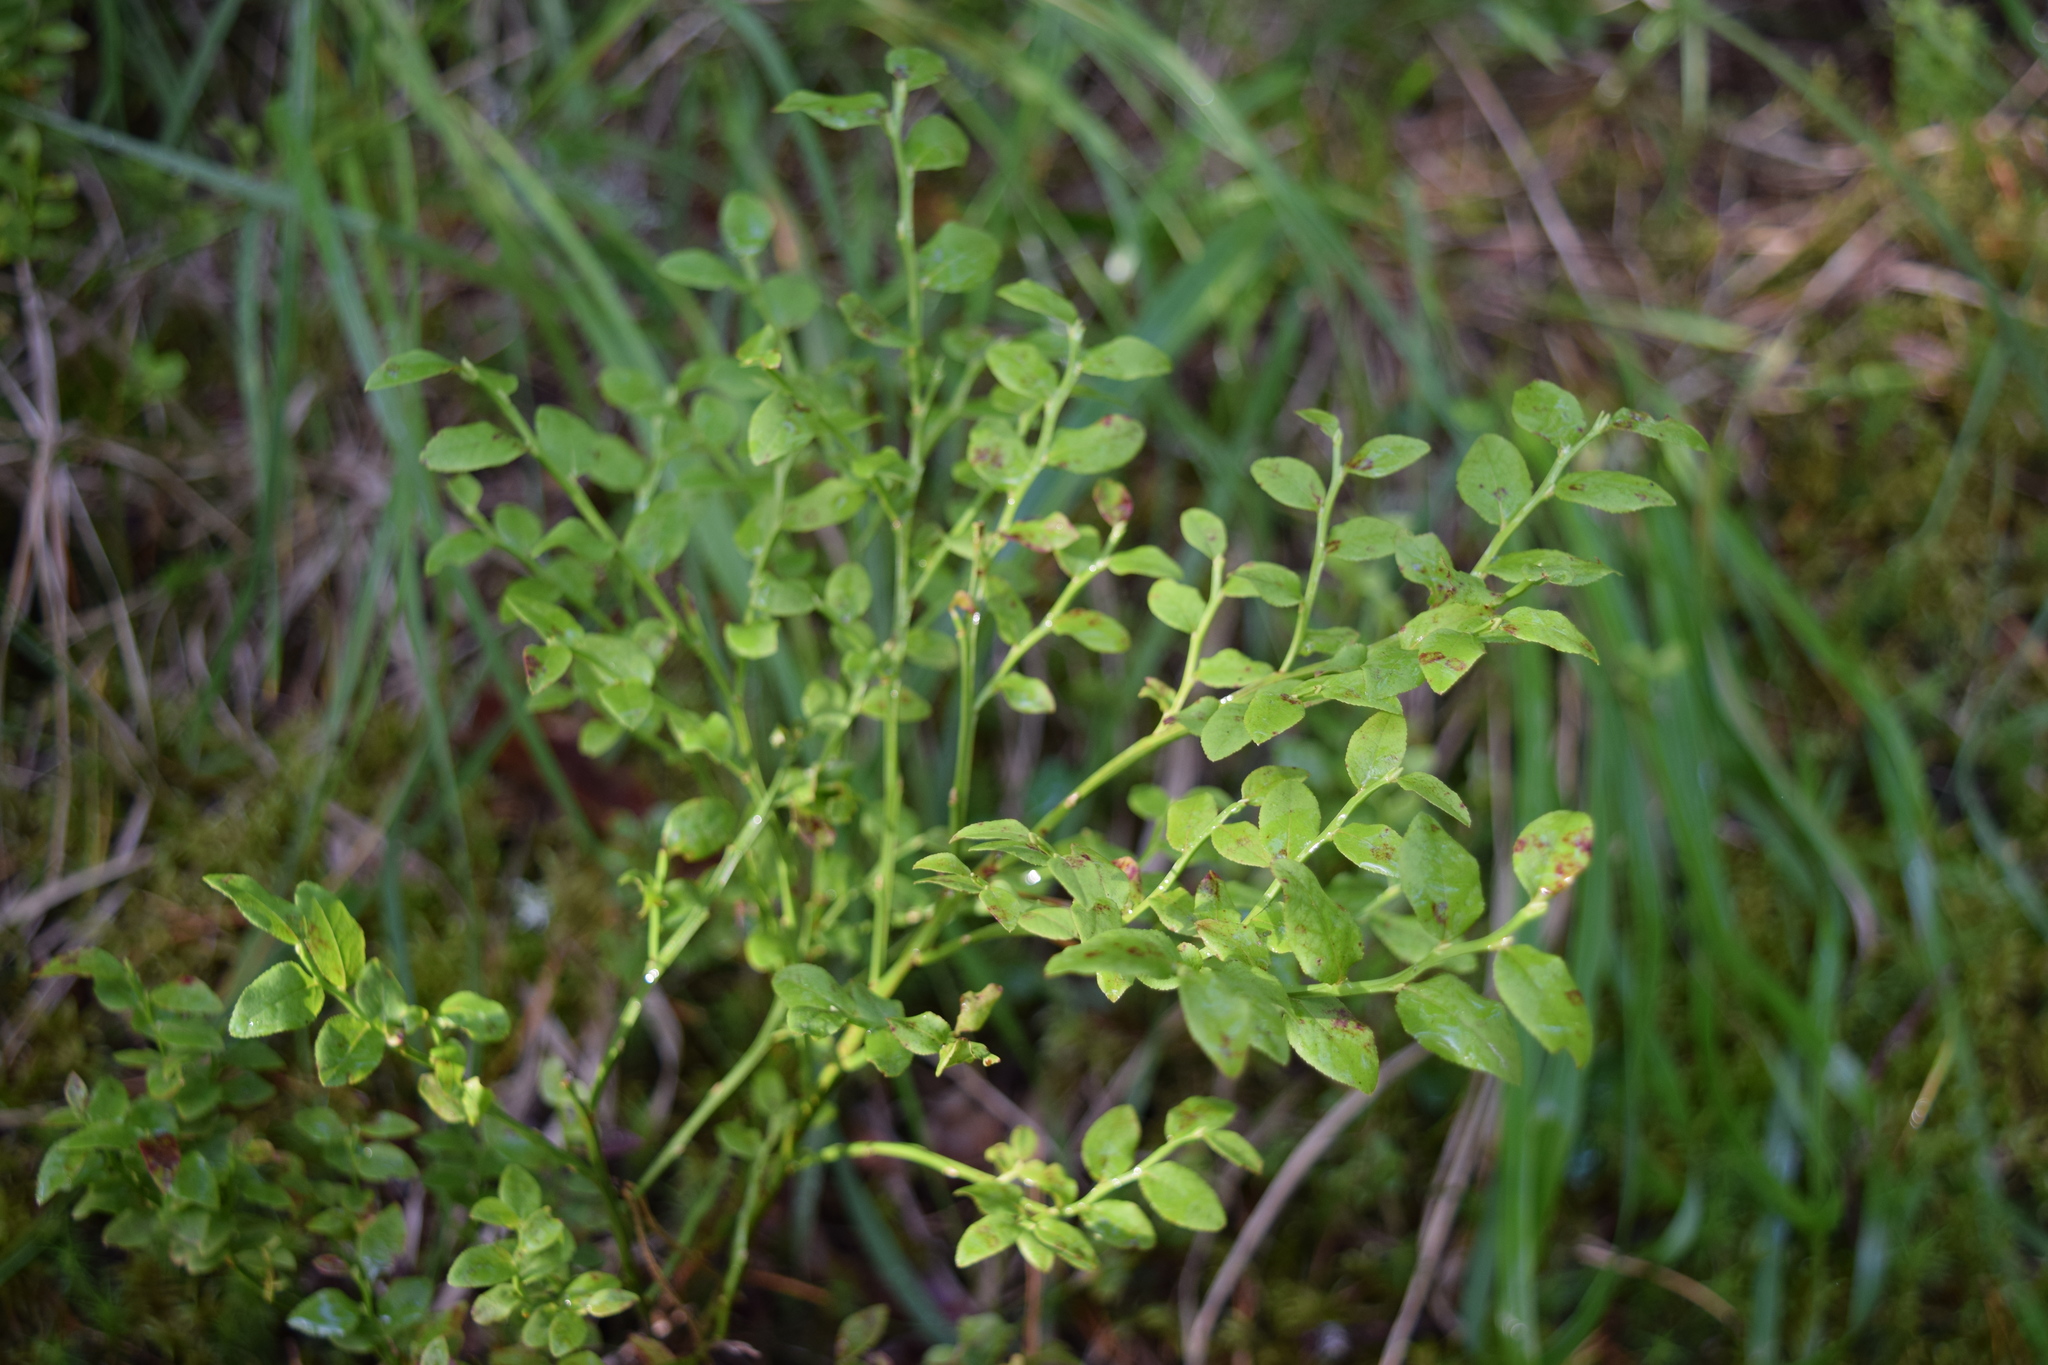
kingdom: Plantae
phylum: Tracheophyta
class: Magnoliopsida
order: Ericales
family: Ericaceae
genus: Vaccinium
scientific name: Vaccinium myrtillus
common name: Bilberry
